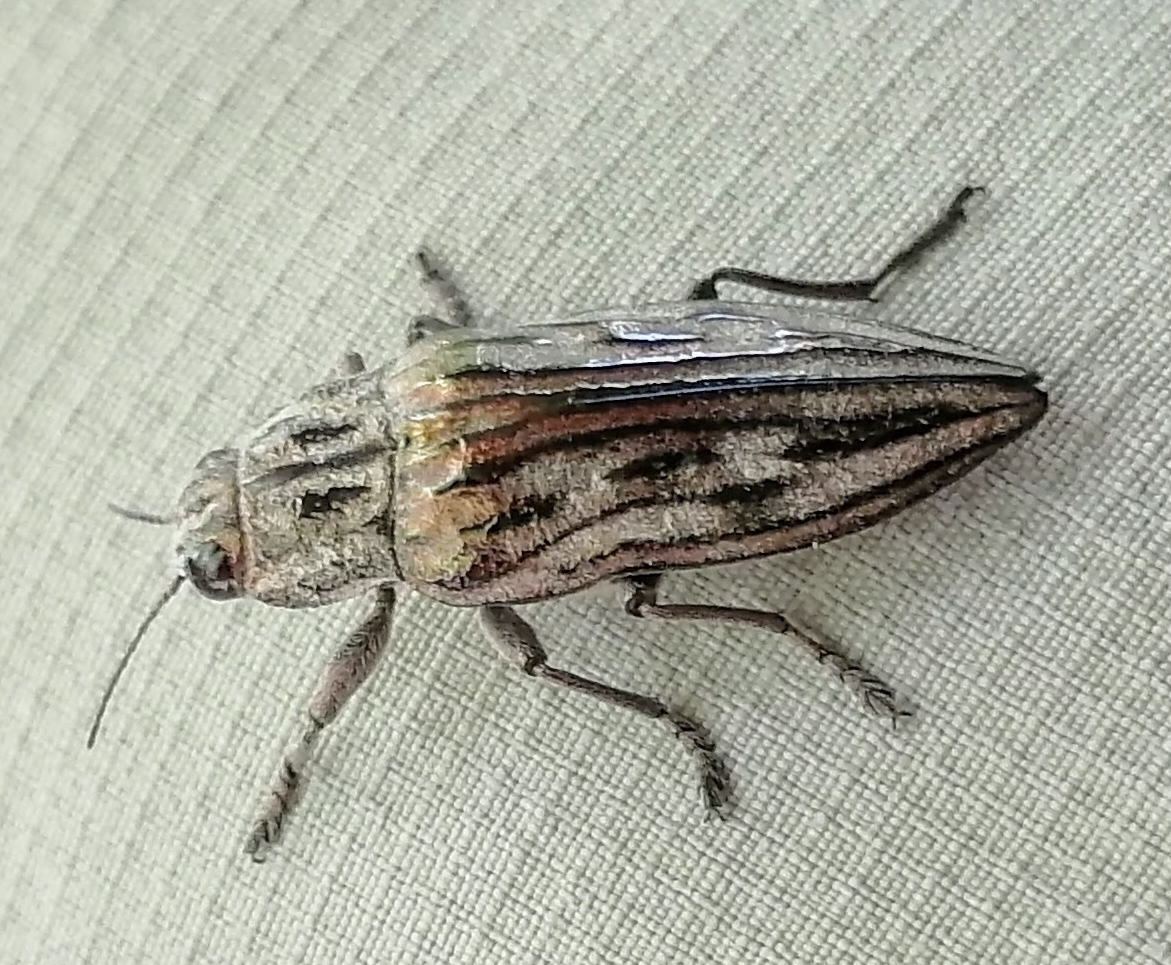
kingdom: Animalia
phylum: Arthropoda
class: Insecta
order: Coleoptera
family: Buprestidae
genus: Chalcophora
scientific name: Chalcophora fortis
